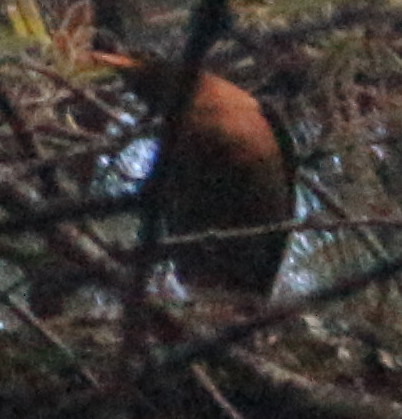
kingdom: Animalia
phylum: Chordata
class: Aves
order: Passeriformes
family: Turdidae
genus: Turdus
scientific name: Turdus rufitorques
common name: Rufous-collared thrush
